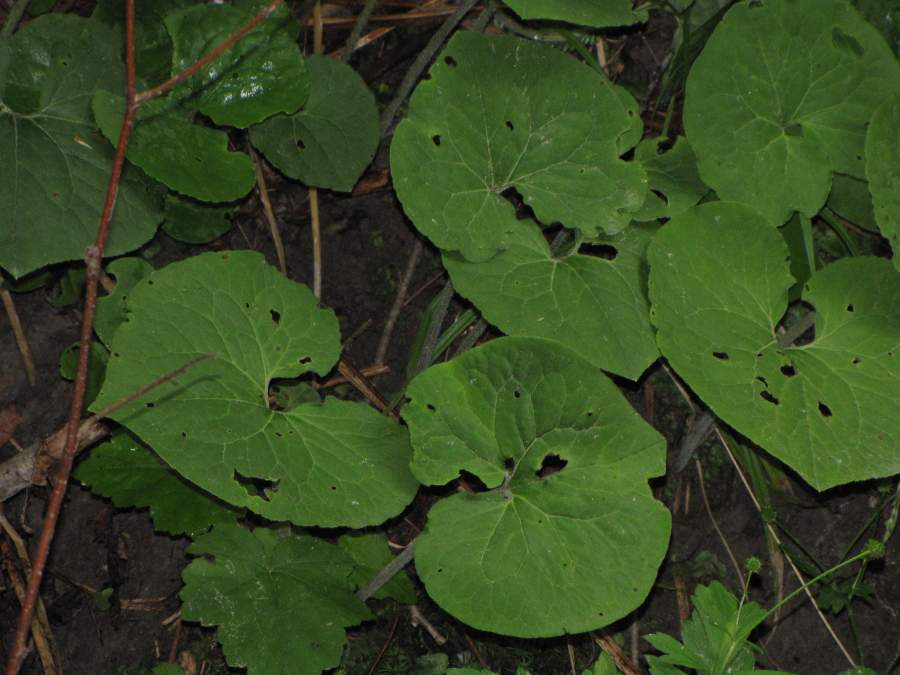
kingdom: Plantae
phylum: Tracheophyta
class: Magnoliopsida
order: Piperales
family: Aristolochiaceae
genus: Asarum
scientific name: Asarum canadense
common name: Wild ginger
